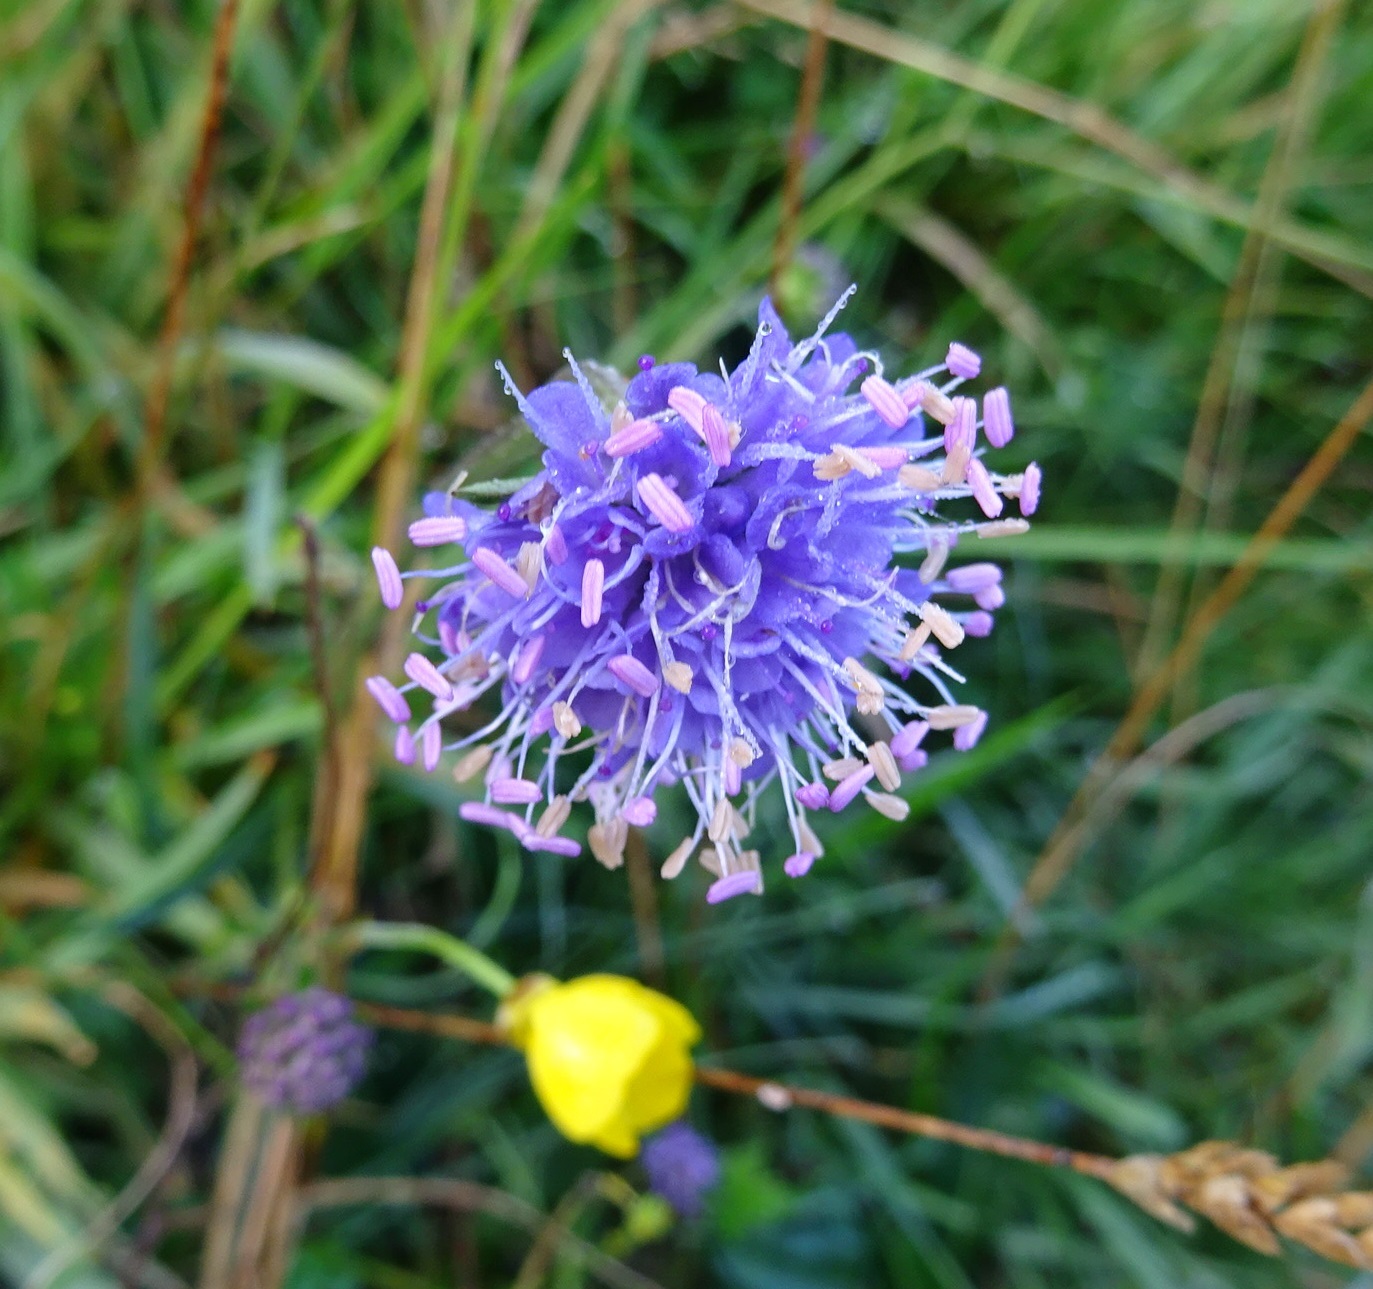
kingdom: Plantae
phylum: Tracheophyta
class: Magnoliopsida
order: Dipsacales
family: Caprifoliaceae
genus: Succisa
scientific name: Succisa pratensis
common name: Devil's-bit
